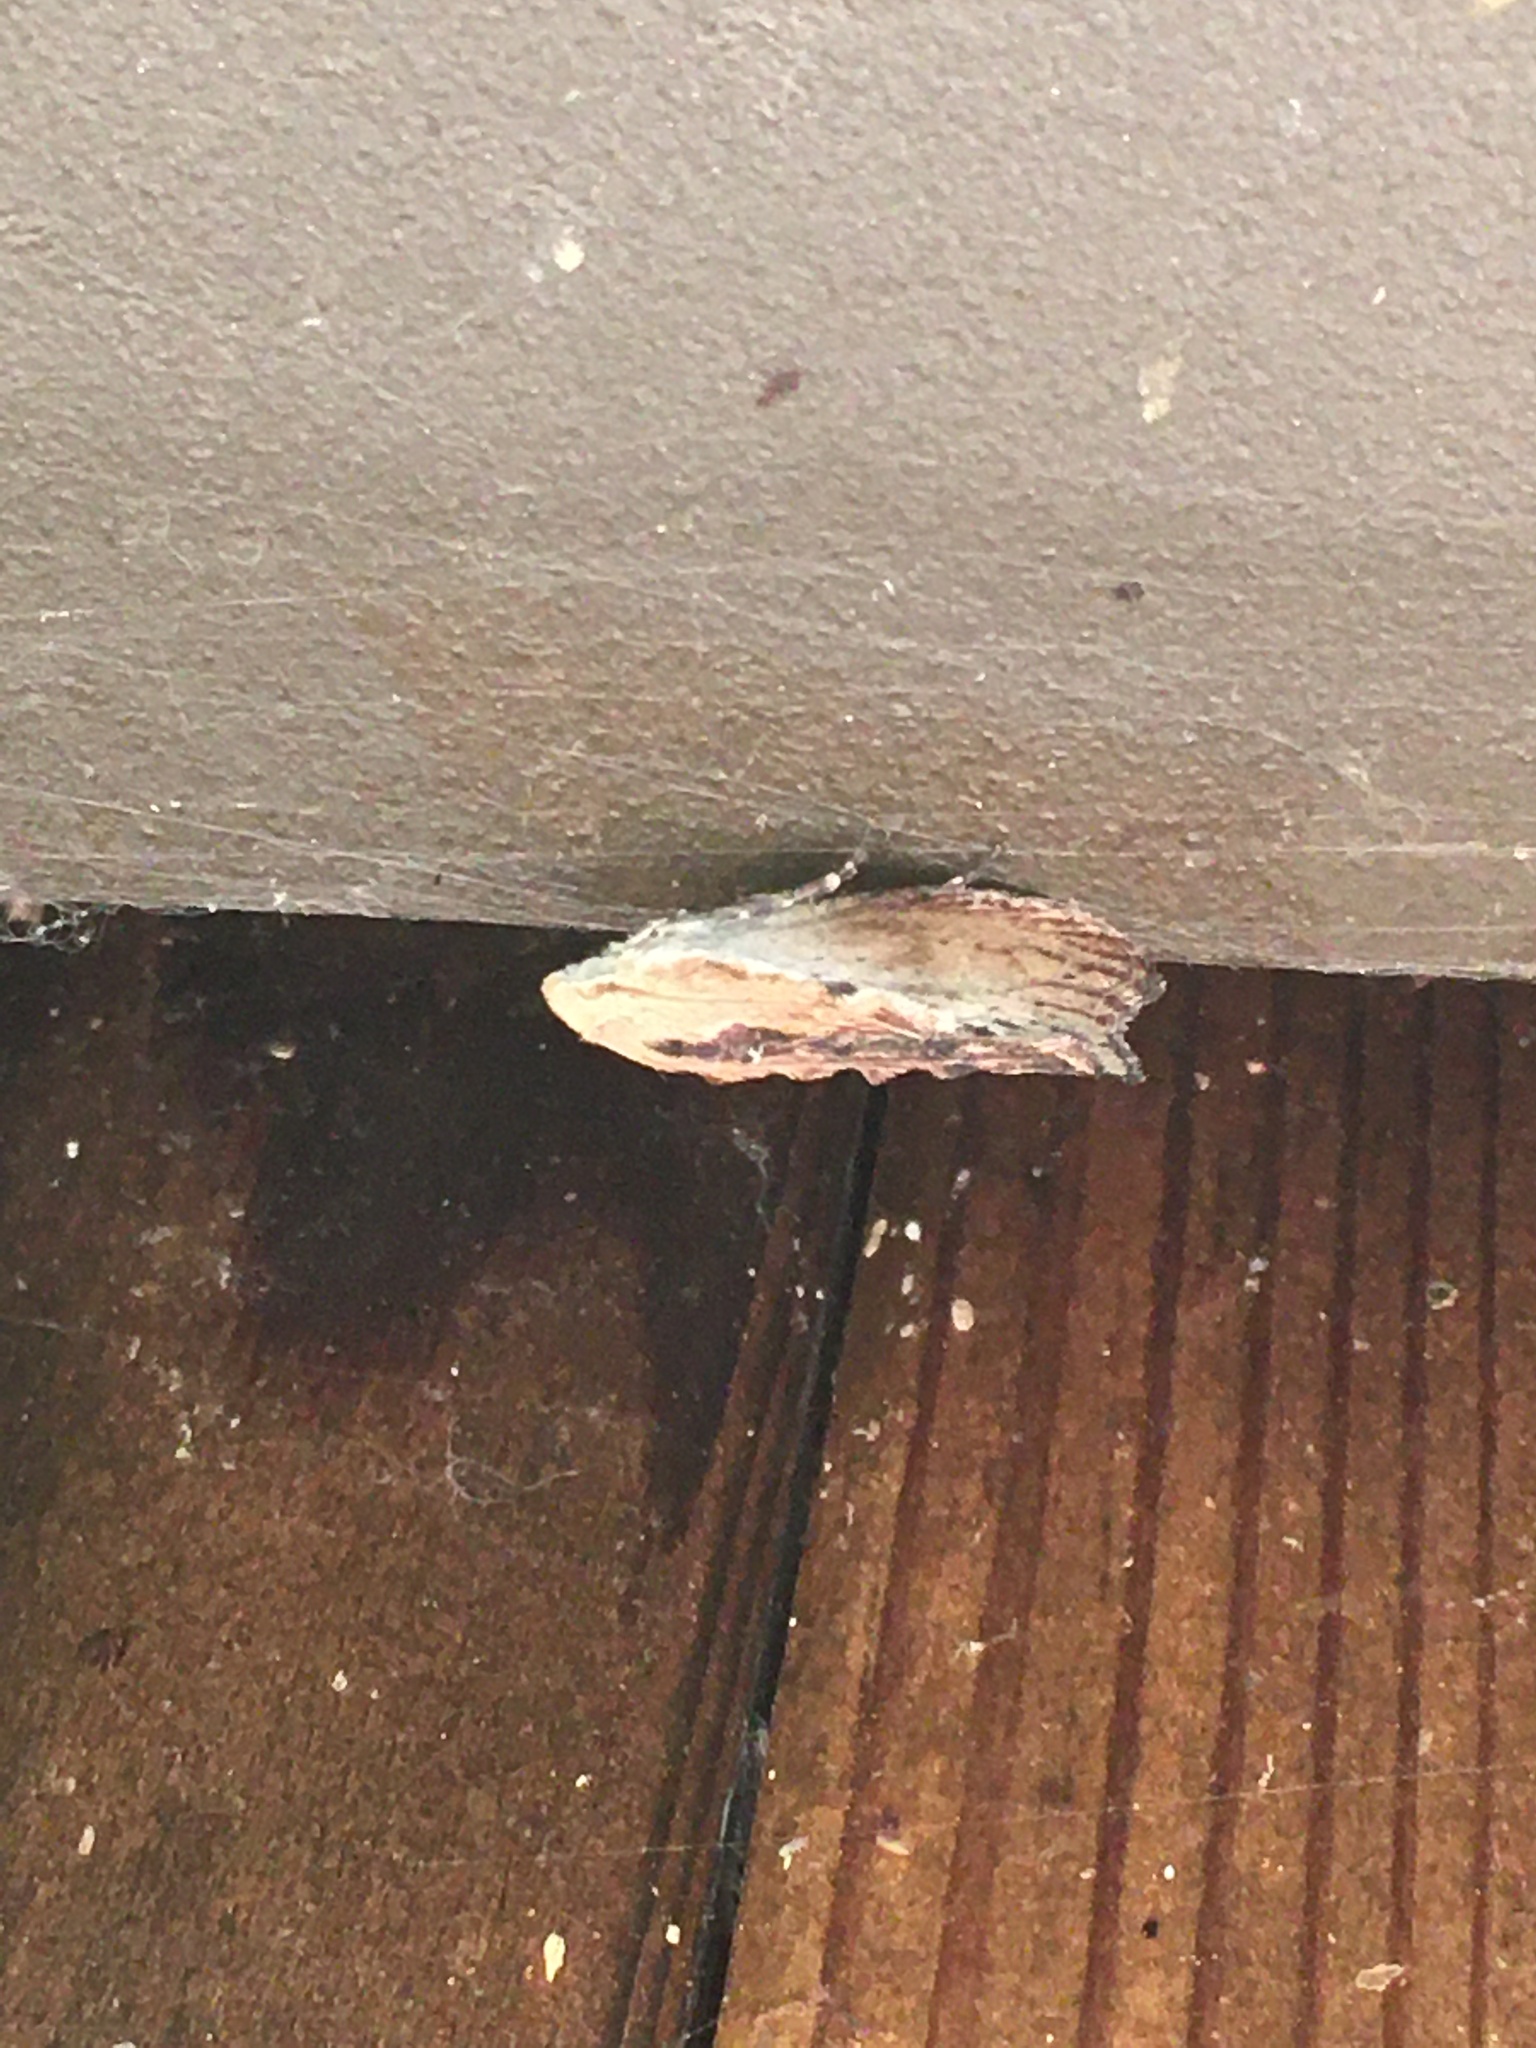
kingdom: Animalia
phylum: Arthropoda
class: Insecta
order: Lepidoptera
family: Pyralidae
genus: Galleria
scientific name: Galleria mellonella
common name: Greater wax moth
